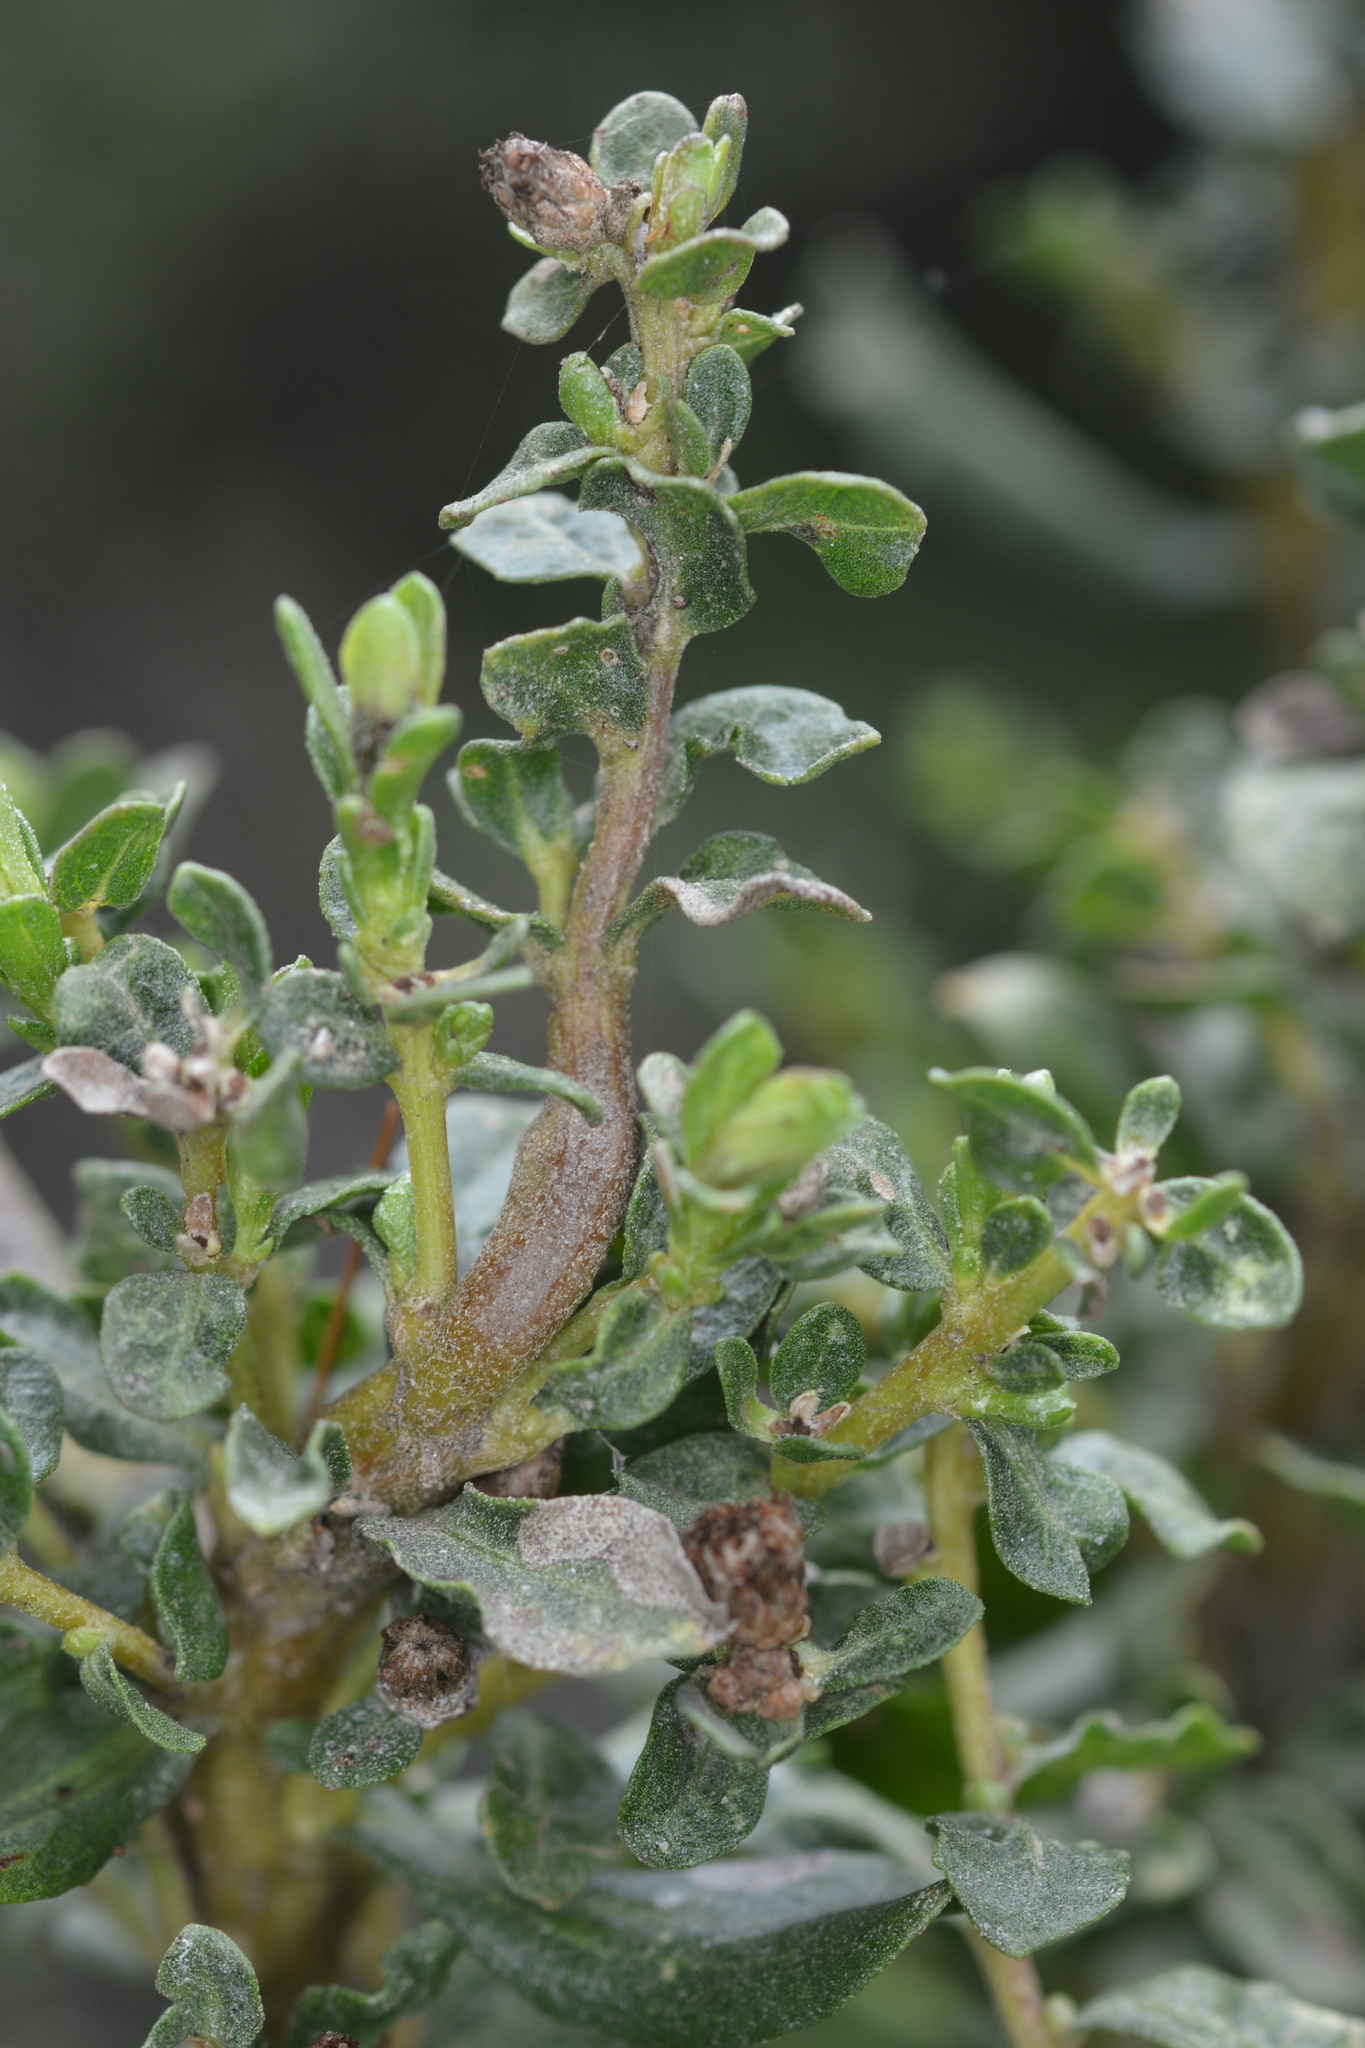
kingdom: Animalia
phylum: Arthropoda
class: Insecta
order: Diptera
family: Cecidomyiidae
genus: Rhopalomyia
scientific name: Rhopalomyia baccharis
